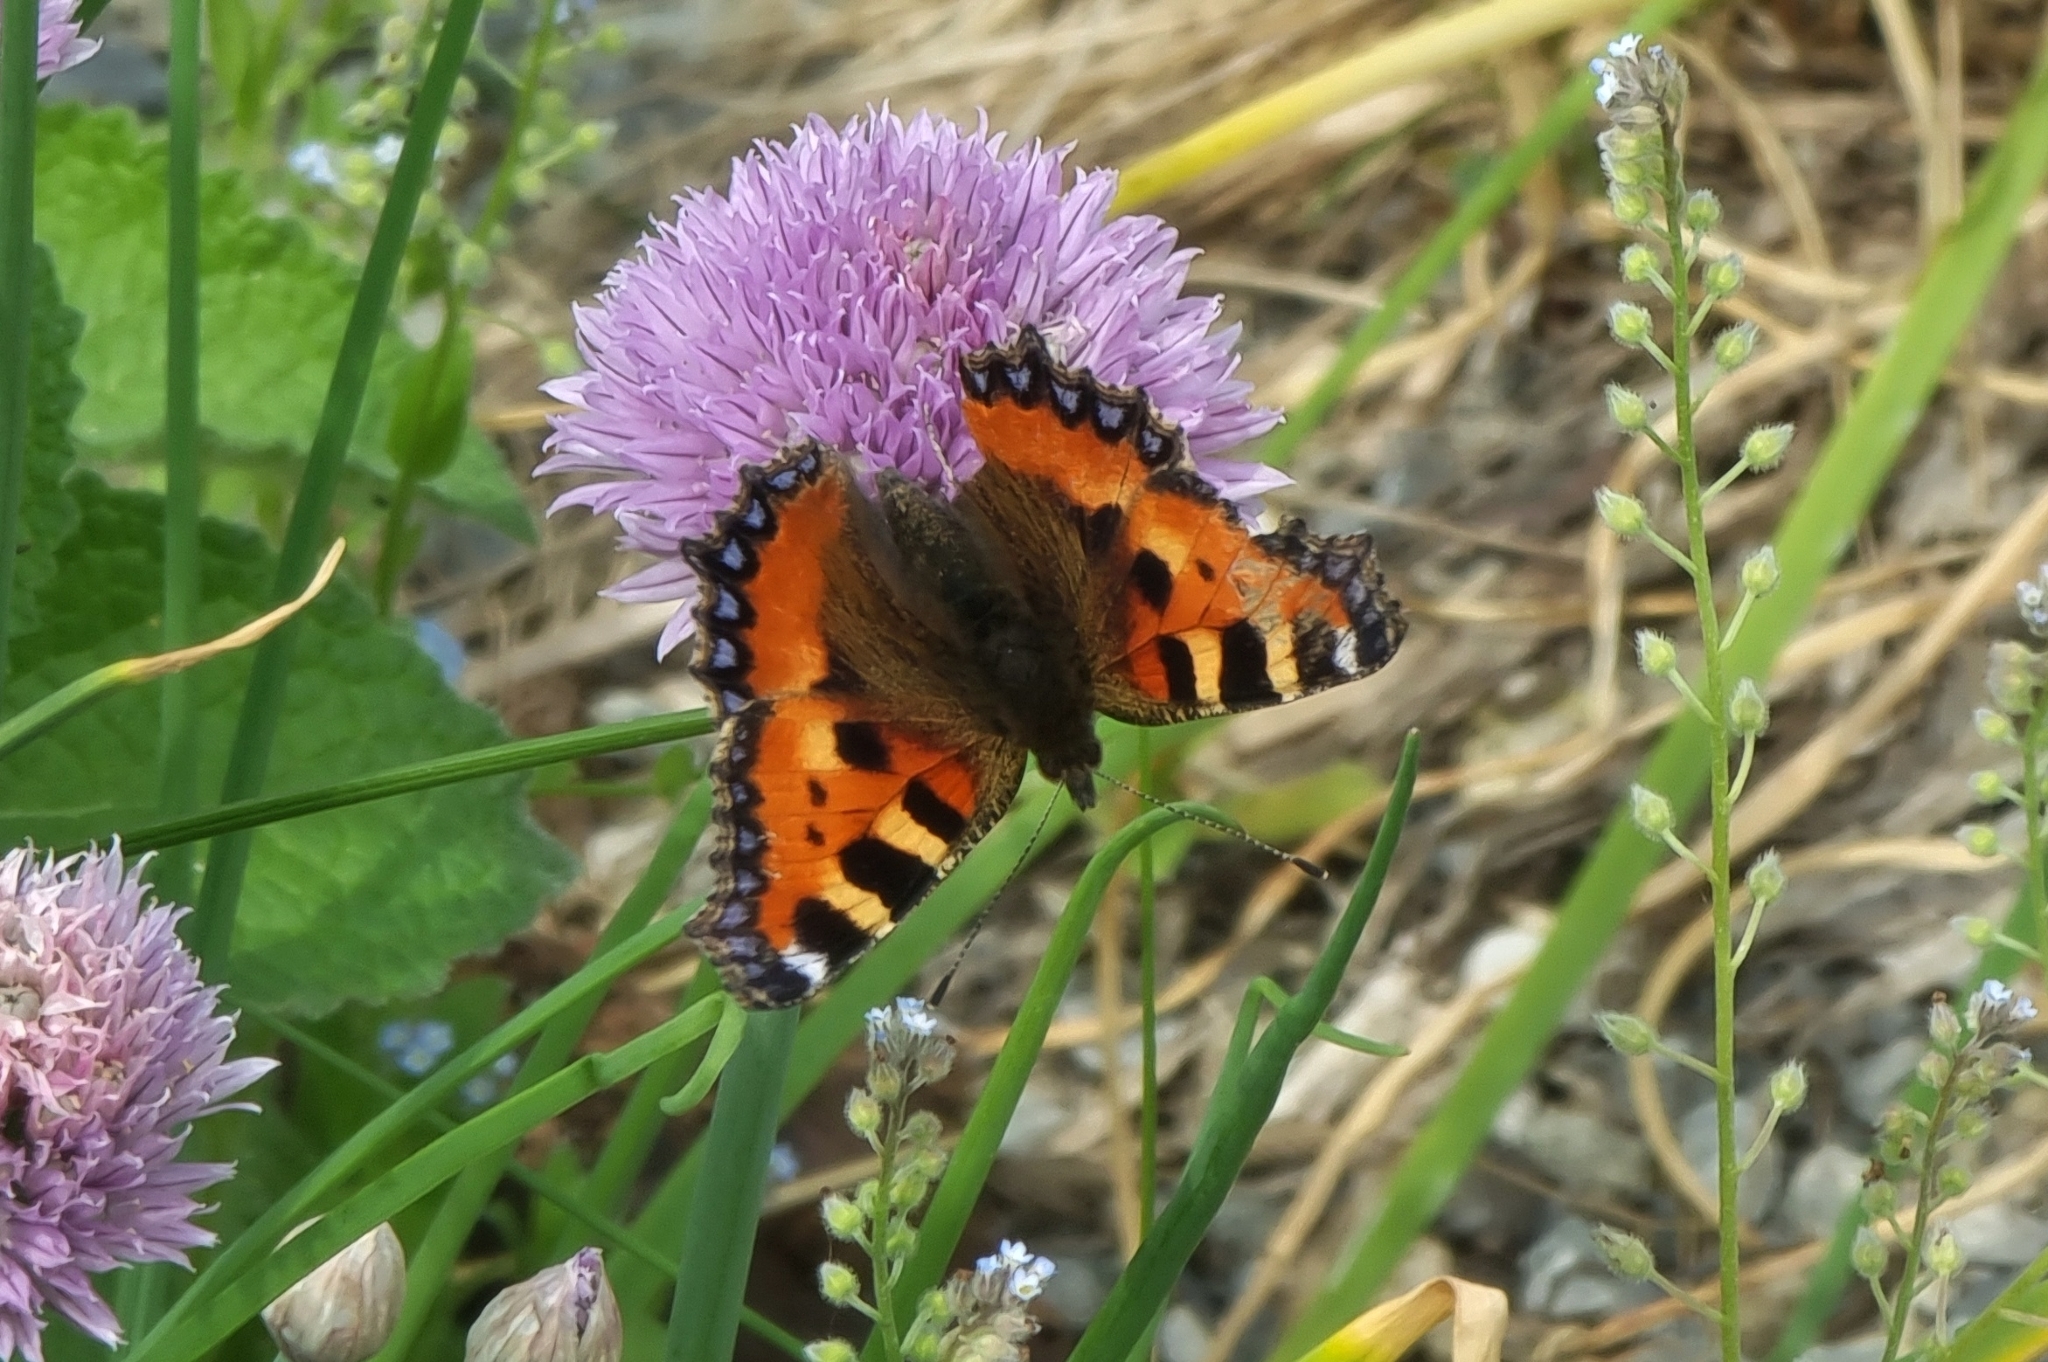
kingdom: Animalia
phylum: Arthropoda
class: Insecta
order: Lepidoptera
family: Nymphalidae
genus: Aglais
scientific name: Aglais urticae
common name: Small tortoiseshell
